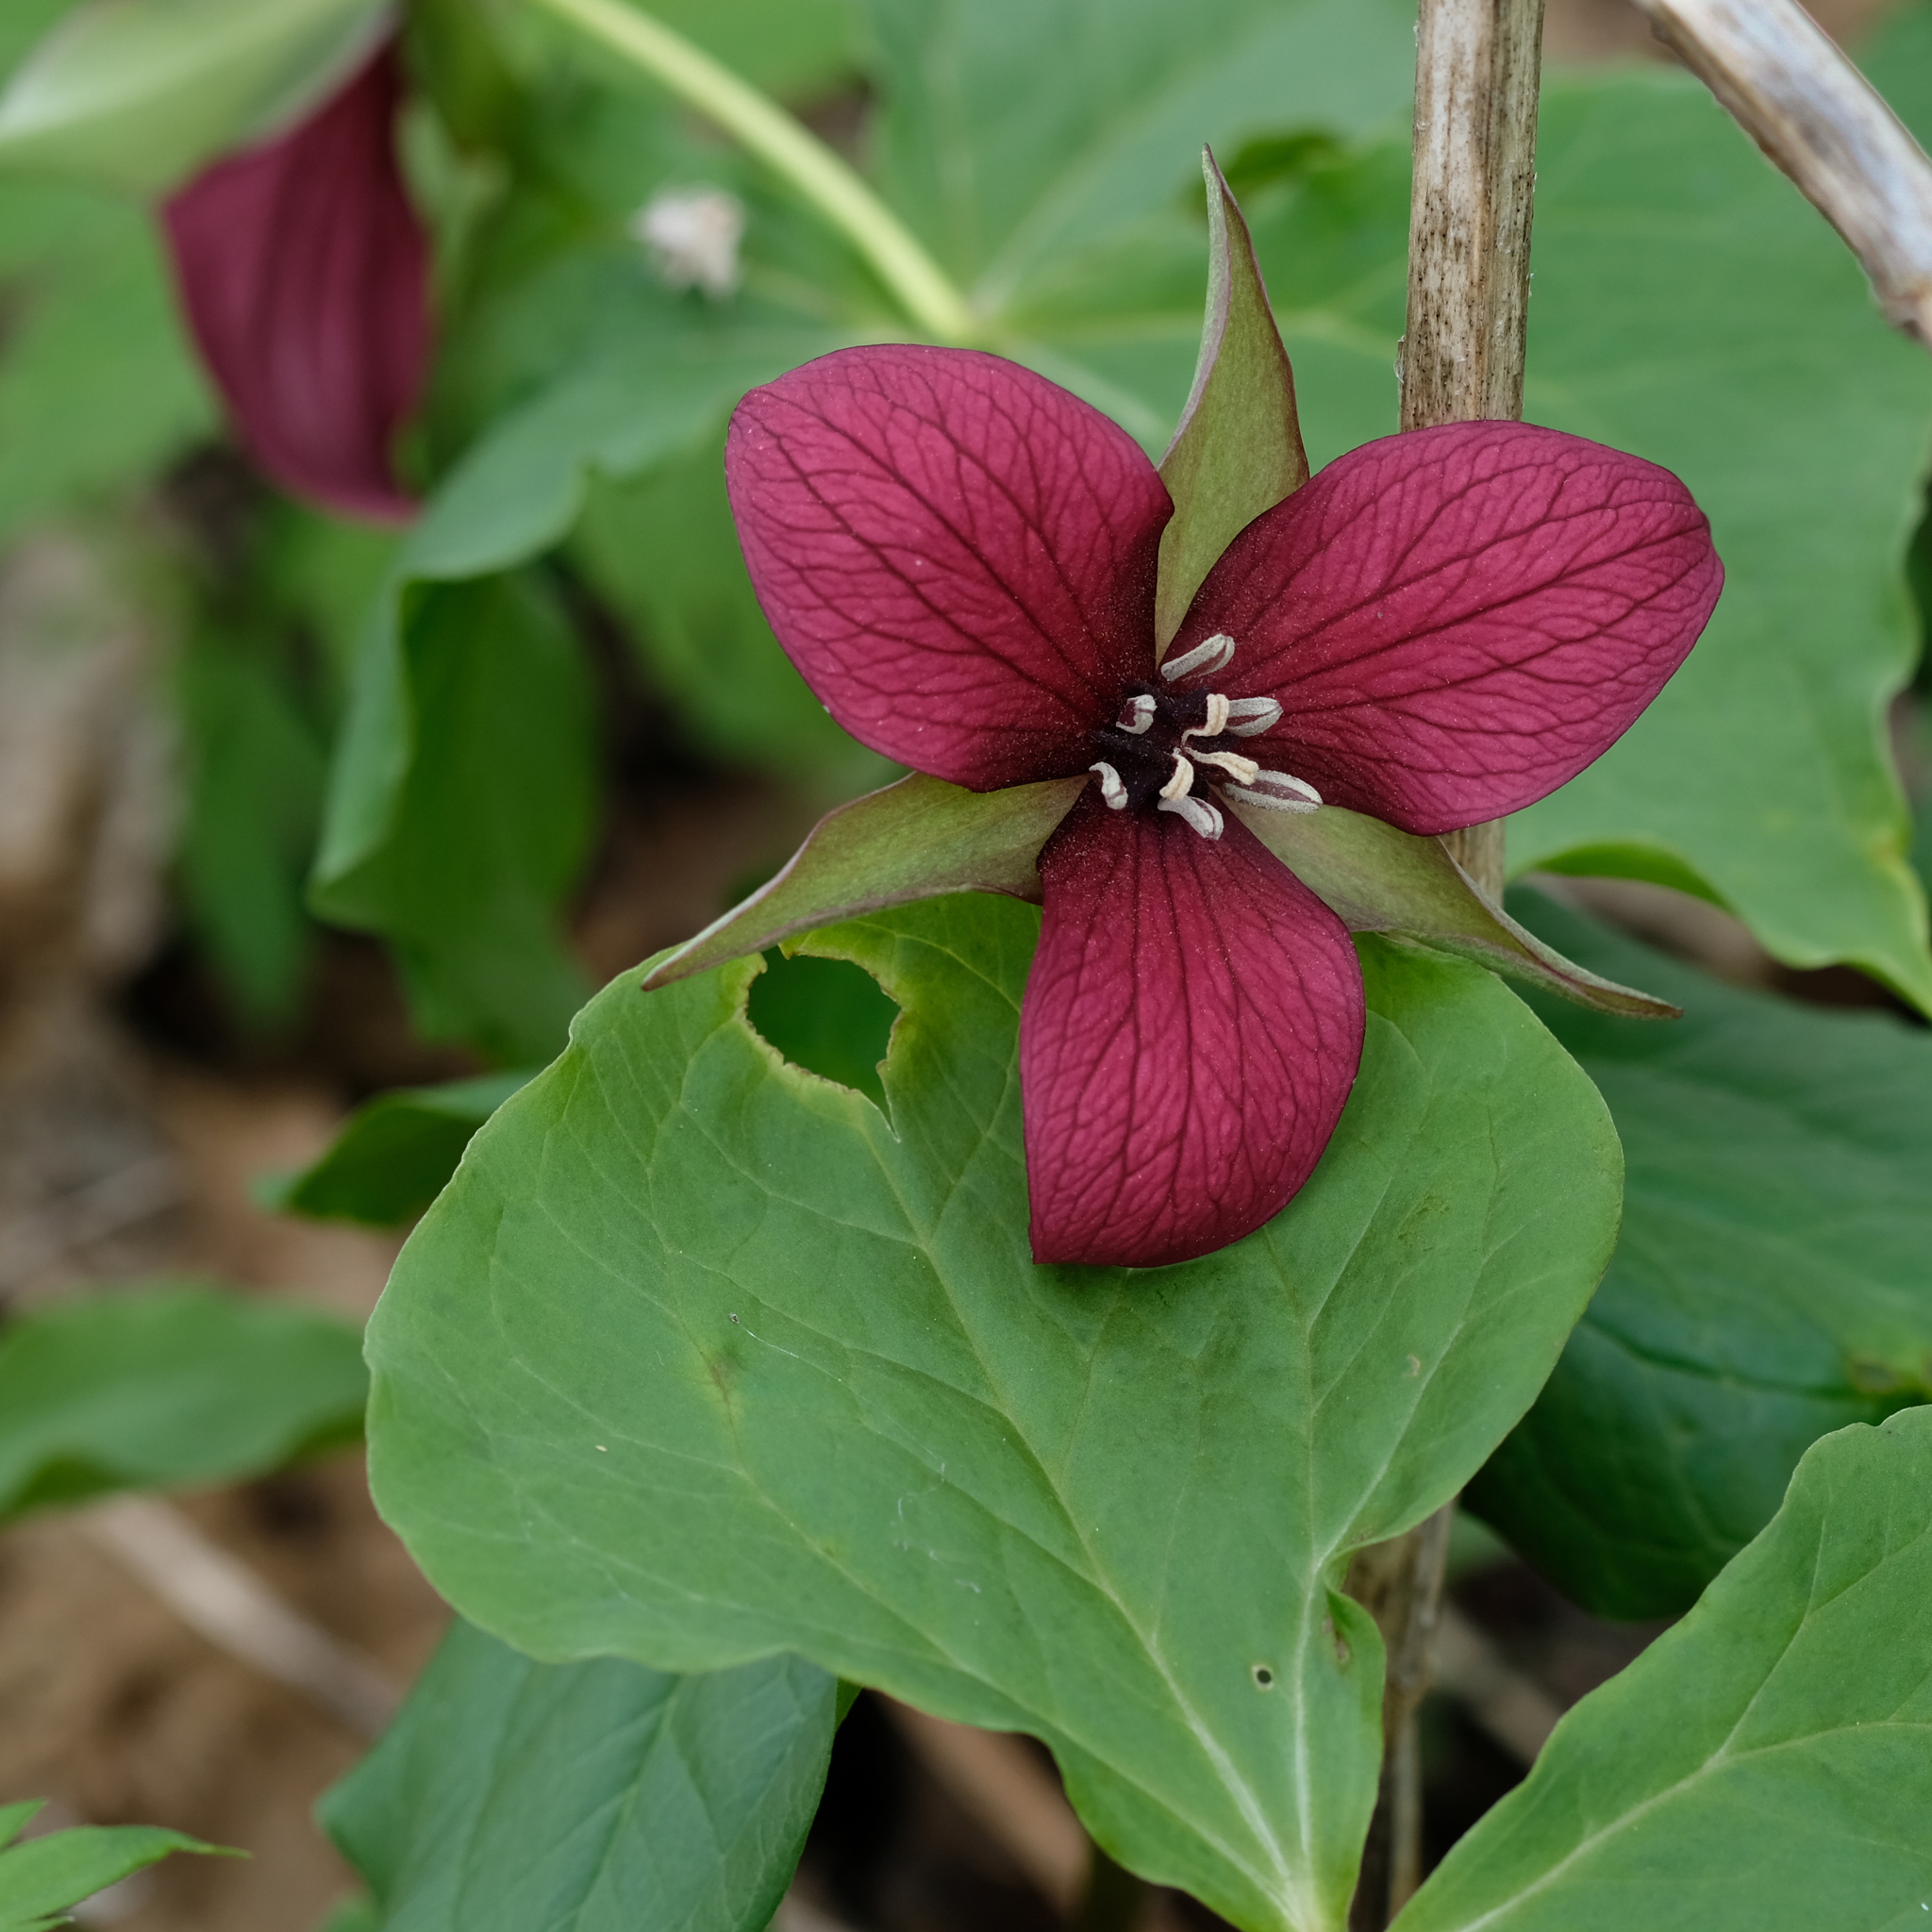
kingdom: Plantae
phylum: Tracheophyta
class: Liliopsida
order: Liliales
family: Melanthiaceae
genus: Trillium
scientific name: Trillium erectum
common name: Purple trillium
